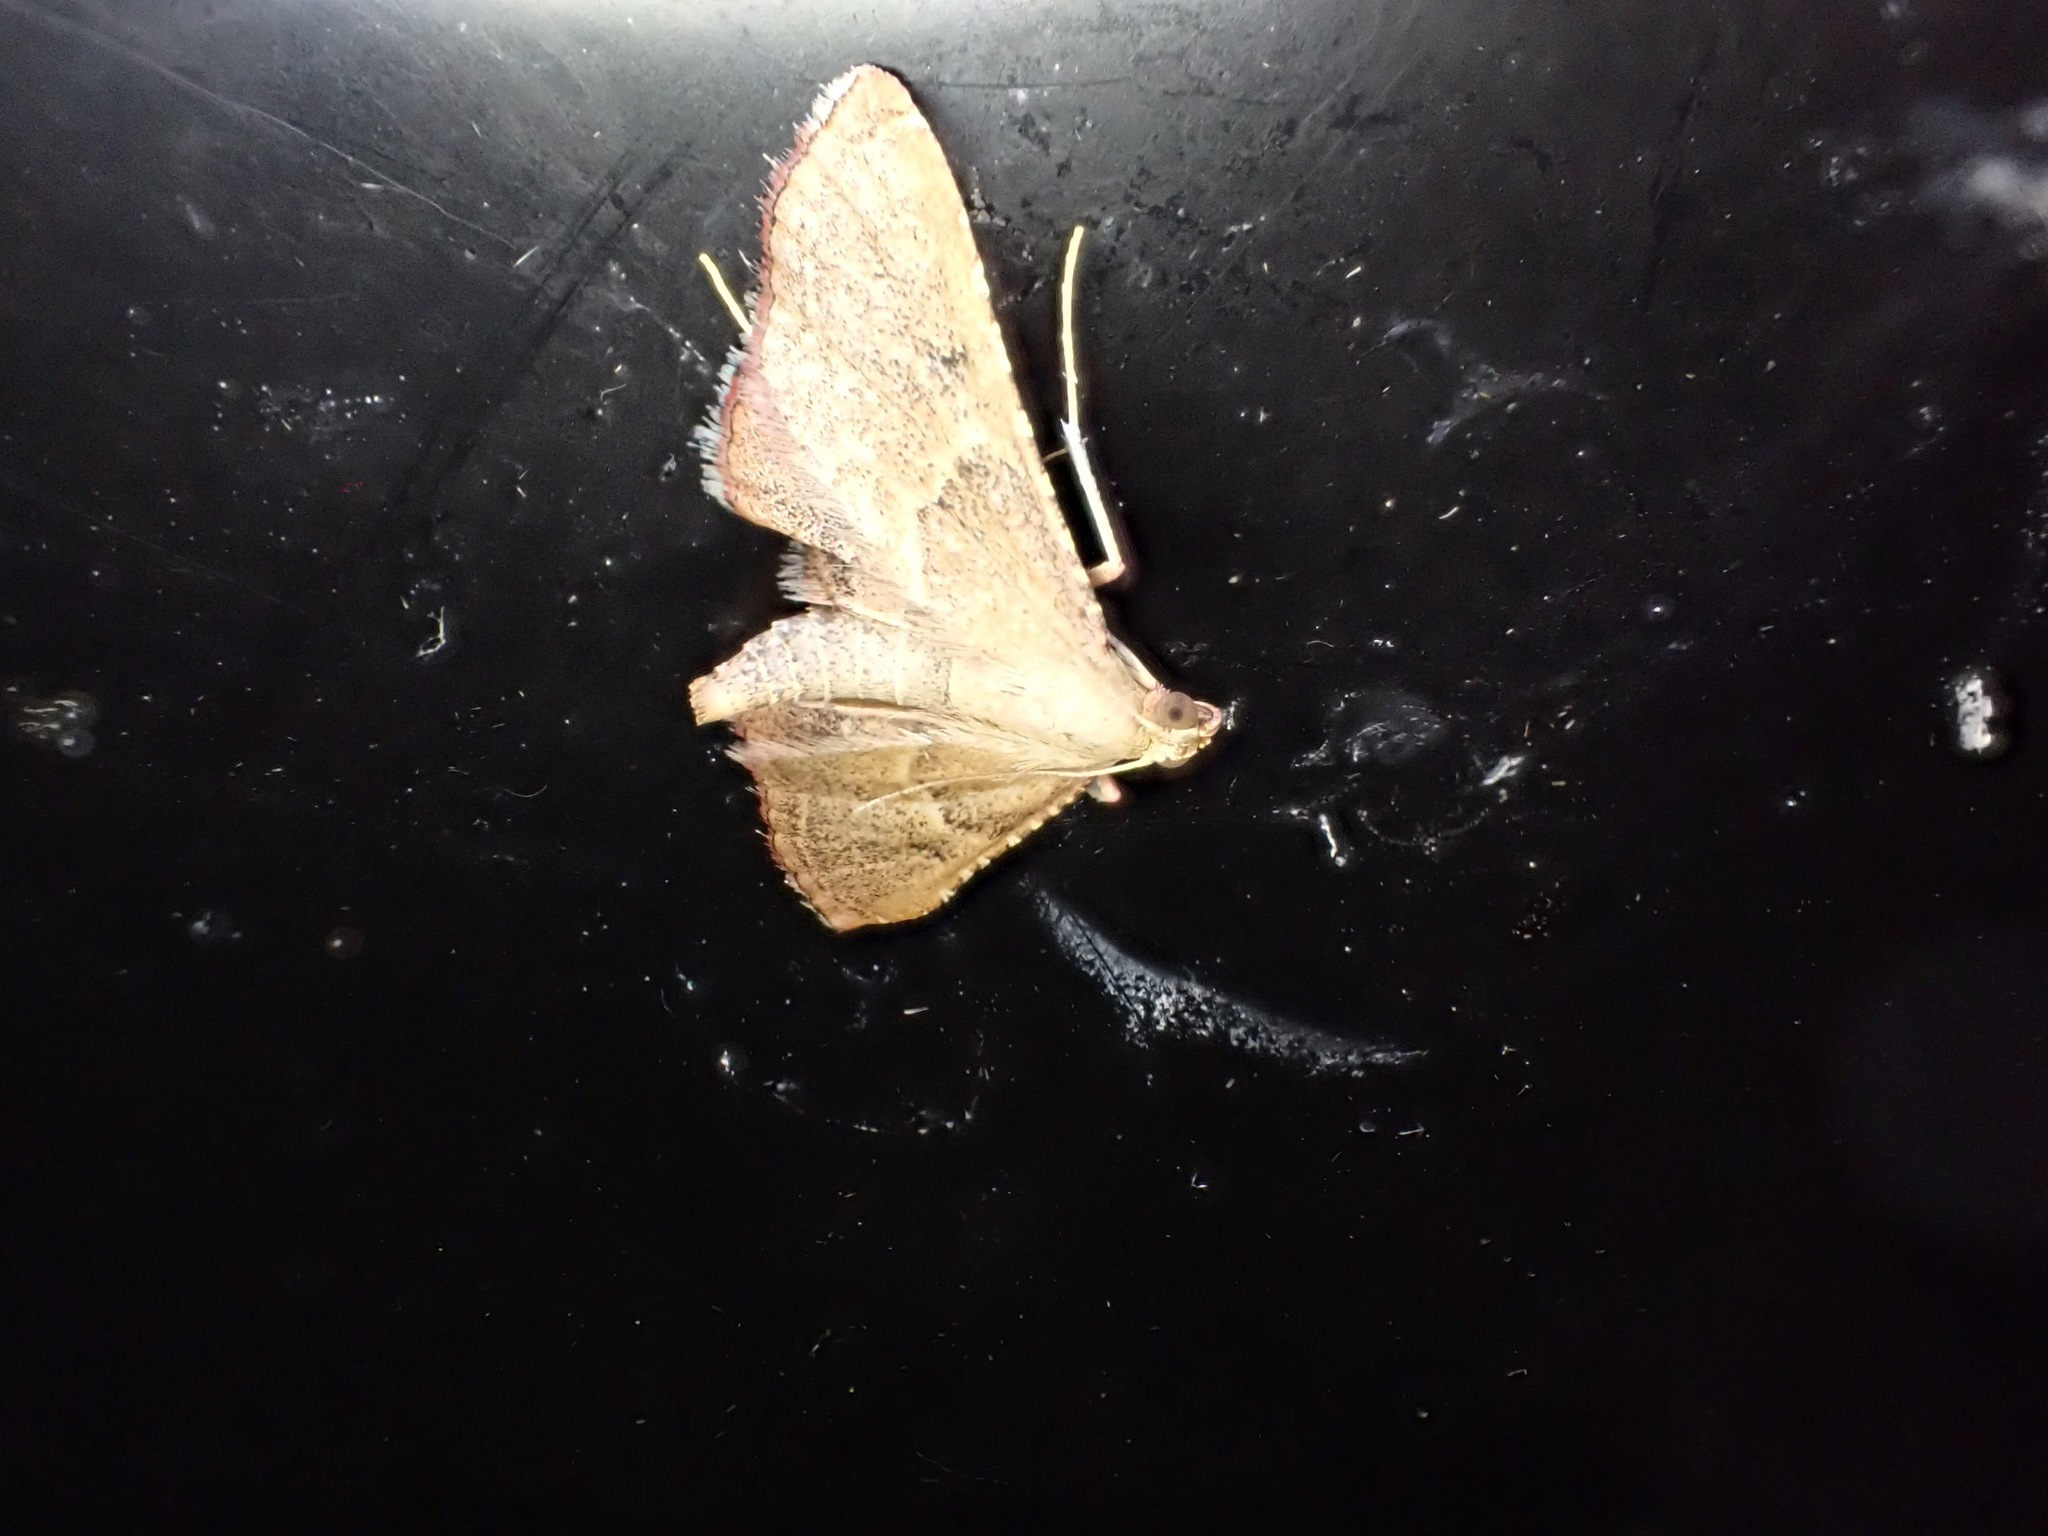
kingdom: Animalia
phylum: Arthropoda
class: Insecta
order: Lepidoptera
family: Pyralidae
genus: Endotricha
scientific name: Endotricha flammealis
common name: Rosy tabby
